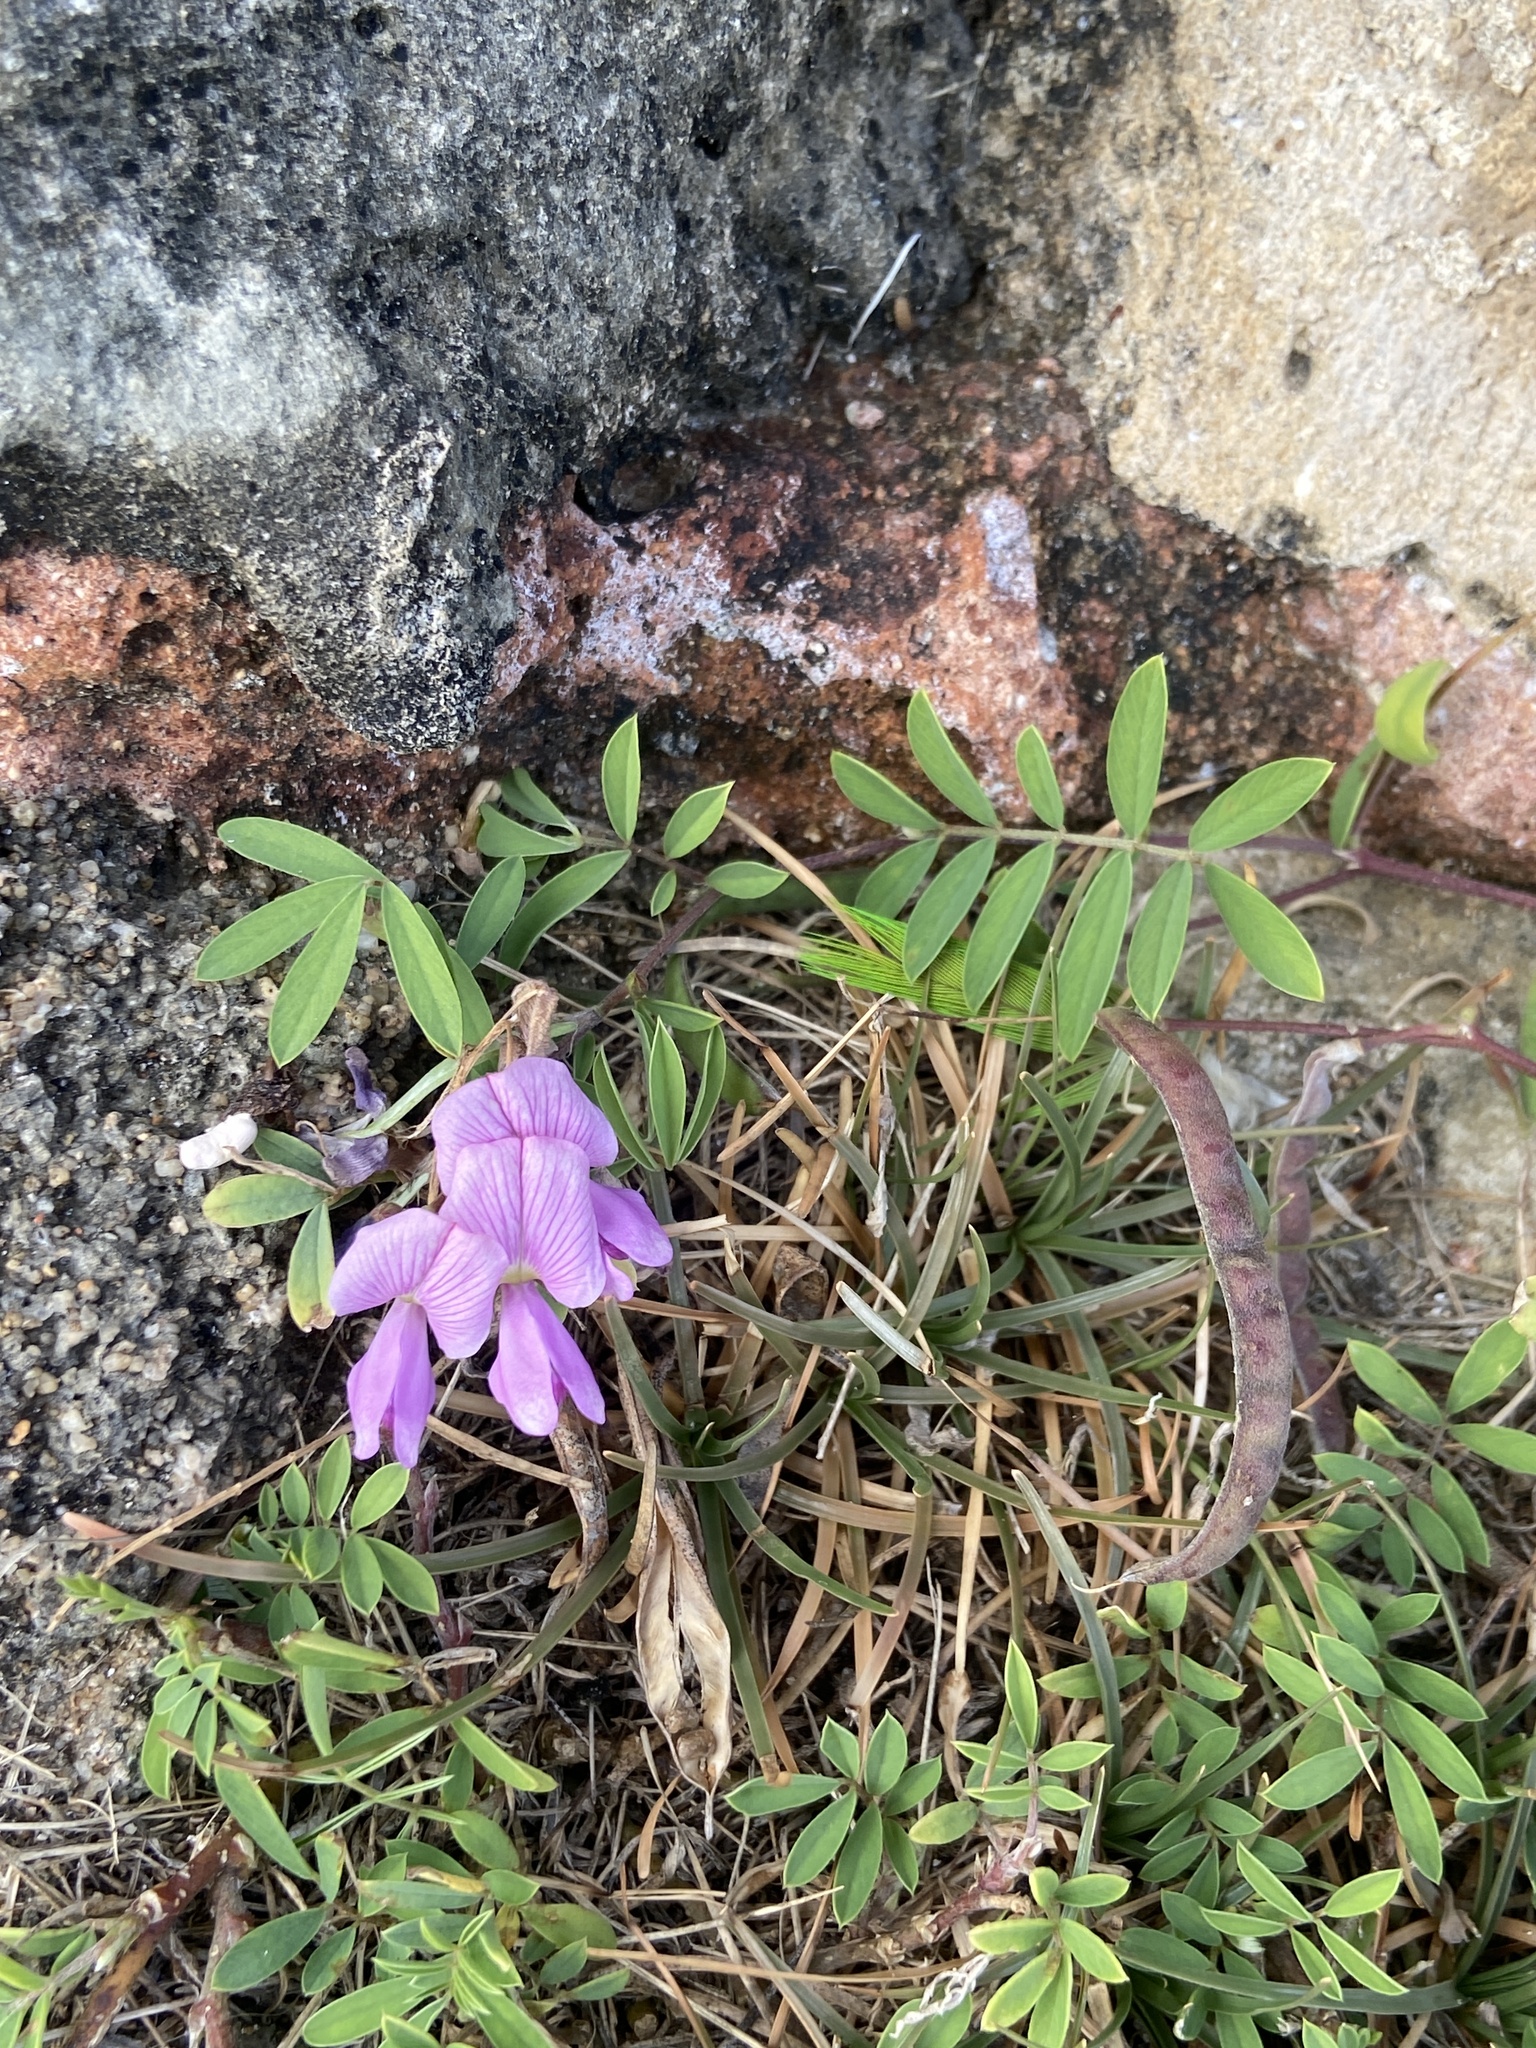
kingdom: Plantae
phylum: Tracheophyta
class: Magnoliopsida
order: Fabales
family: Fabaceae
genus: Tephrosia
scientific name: Tephrosia cinerea
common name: Ashen hoarypea
